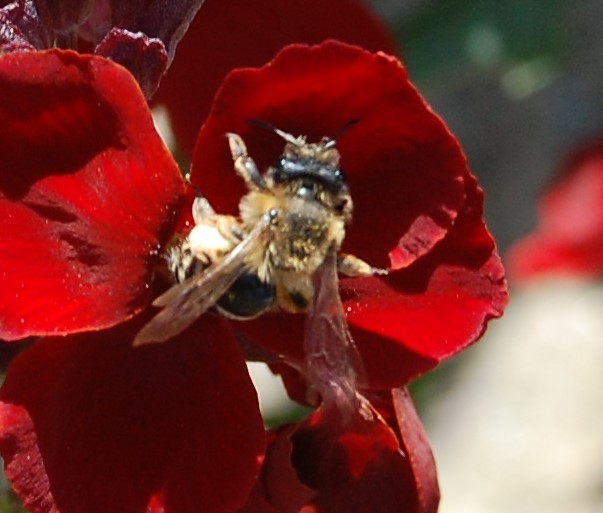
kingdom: Animalia
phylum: Arthropoda
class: Insecta
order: Hymenoptera
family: Andrenidae
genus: Andrena
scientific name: Andrena flavipes
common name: Yellow-legged mining bee
